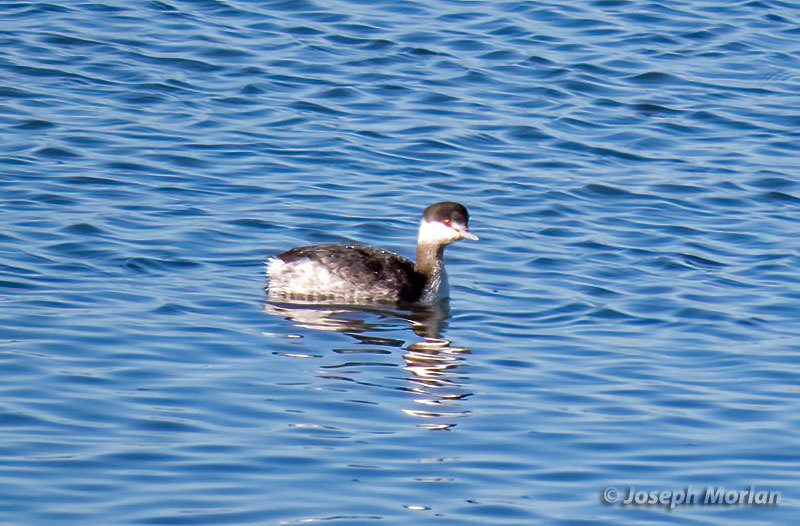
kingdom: Animalia
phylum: Chordata
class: Aves
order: Podicipediformes
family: Podicipedidae
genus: Podiceps
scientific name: Podiceps auritus
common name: Horned grebe
